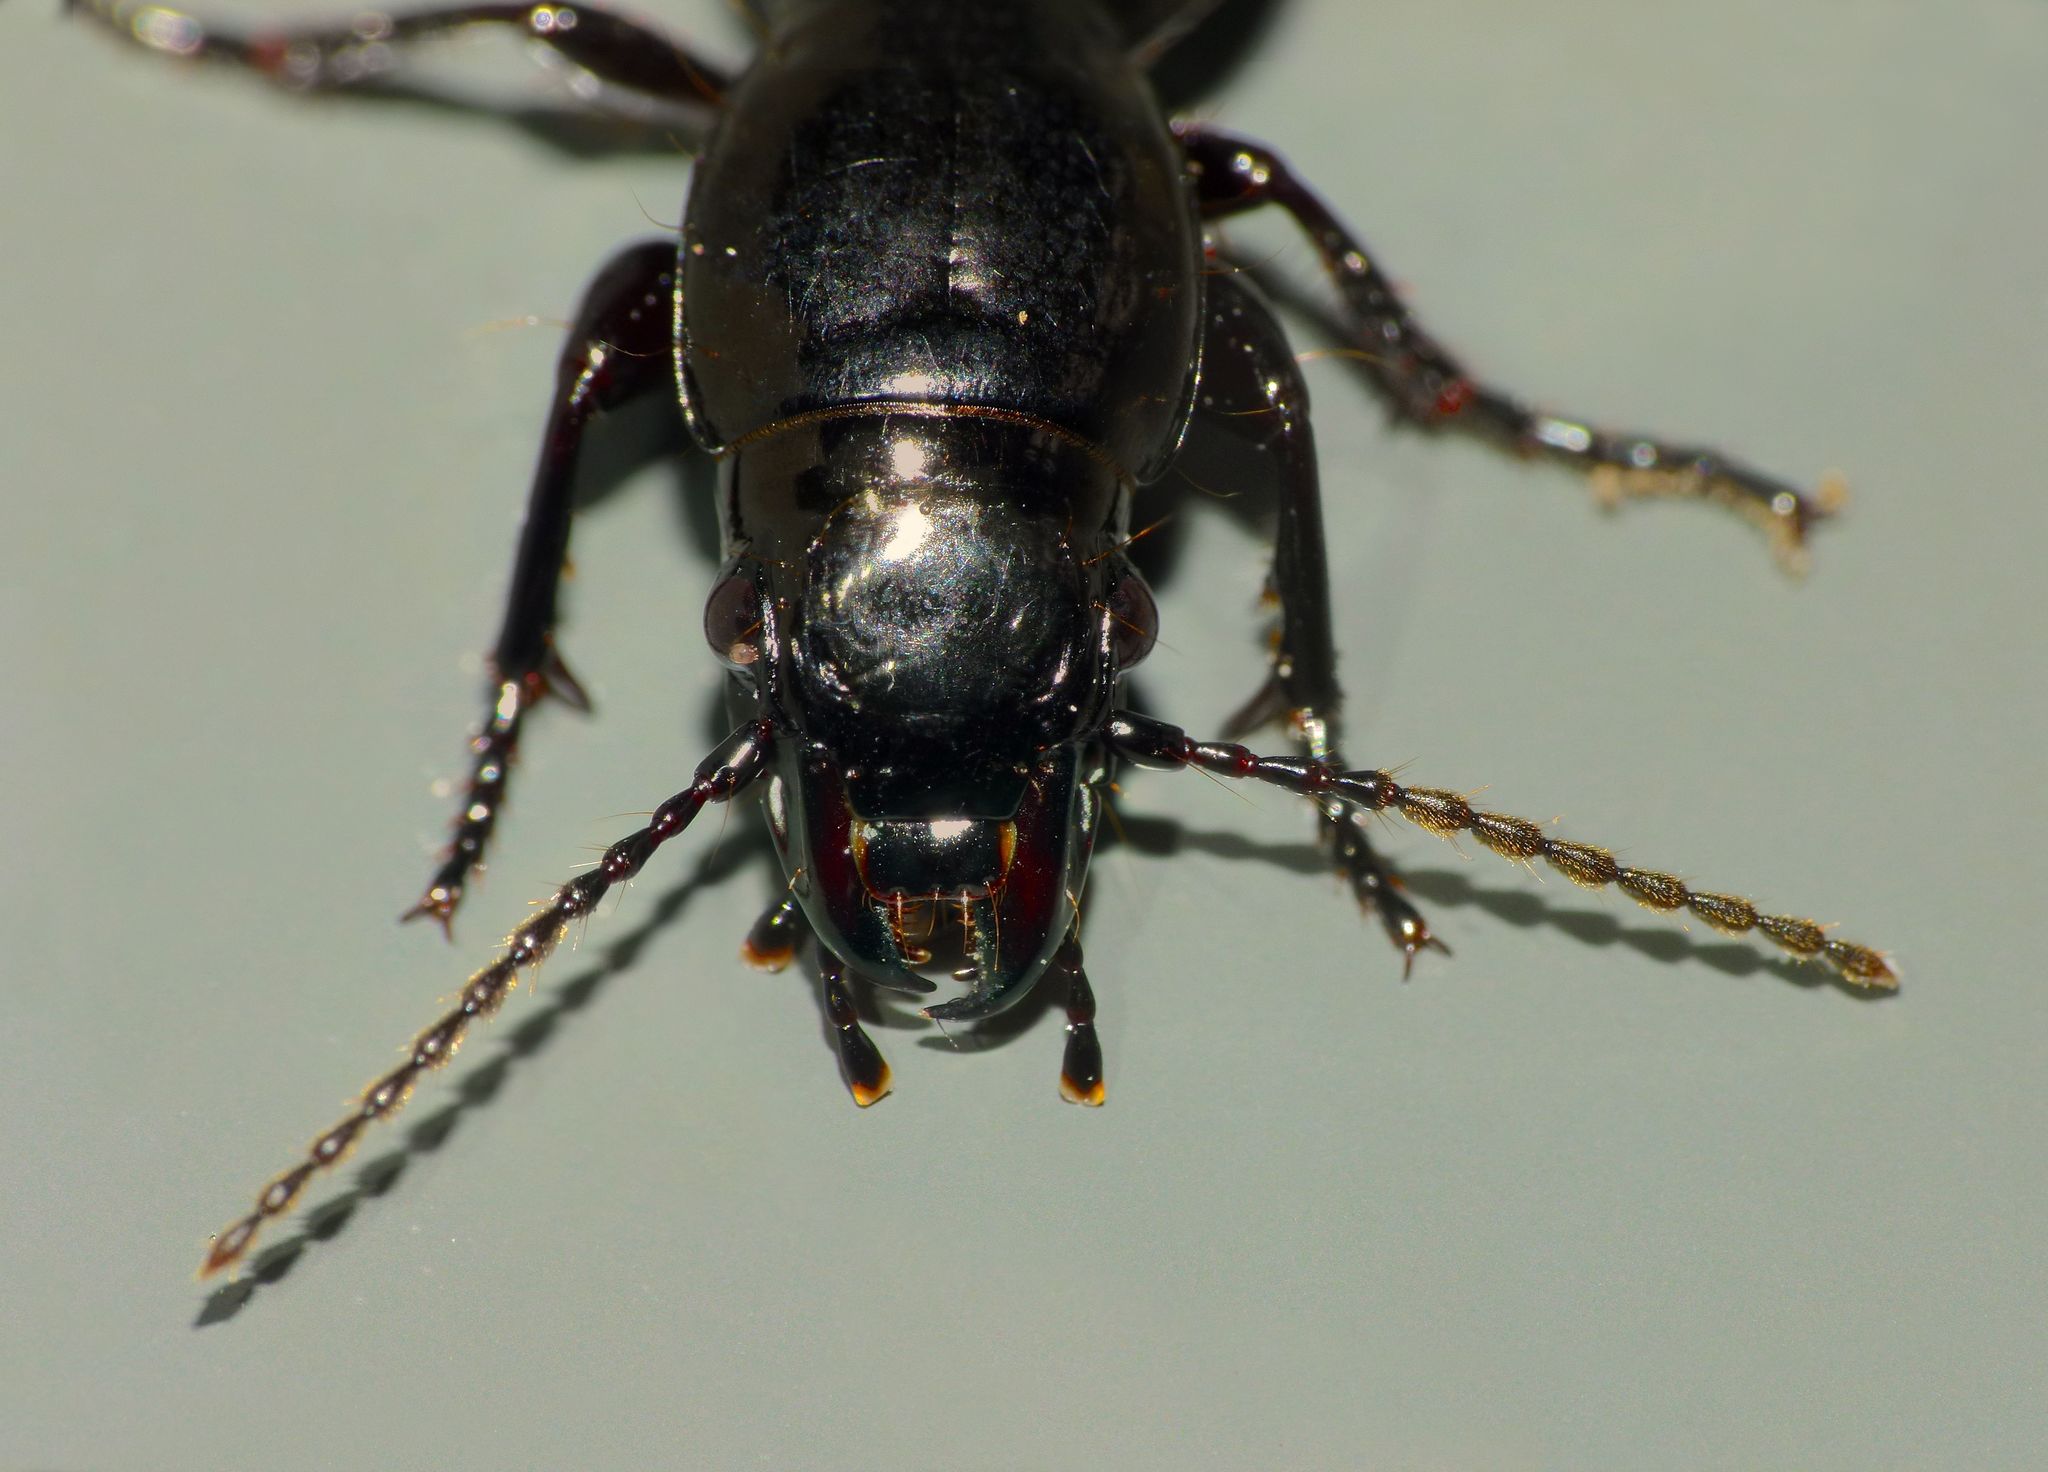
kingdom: Animalia
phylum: Arthropoda
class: Insecta
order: Coleoptera
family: Carabidae
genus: Oregus
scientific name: Oregus aereus
